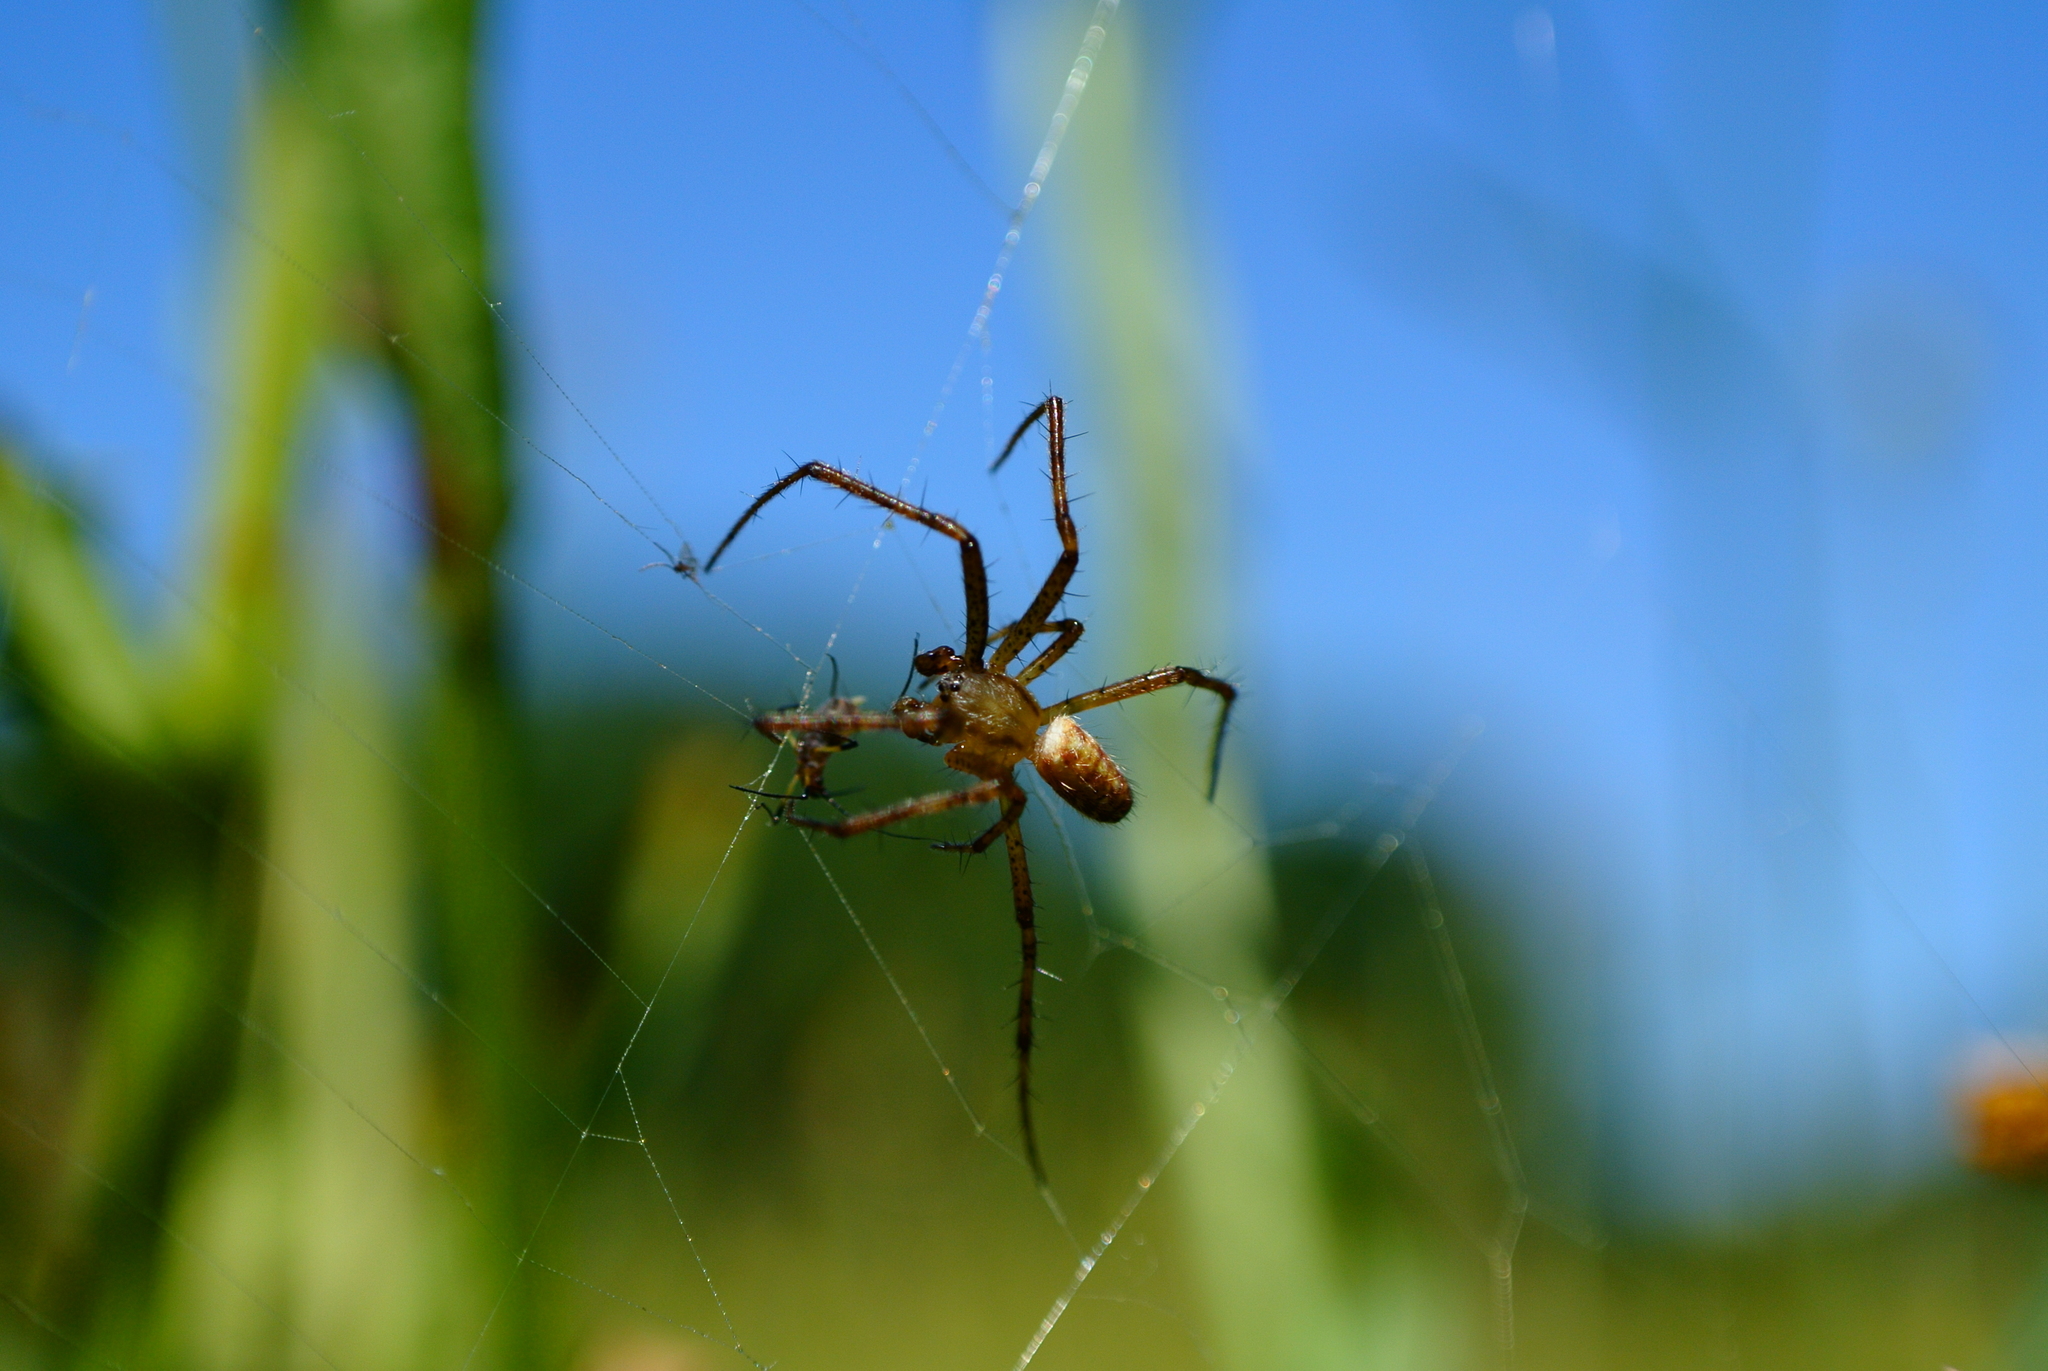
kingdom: Animalia
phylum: Arthropoda
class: Arachnida
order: Araneae
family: Araneidae
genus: Argiope
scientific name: Argiope bruennichi
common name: Wasp spider
